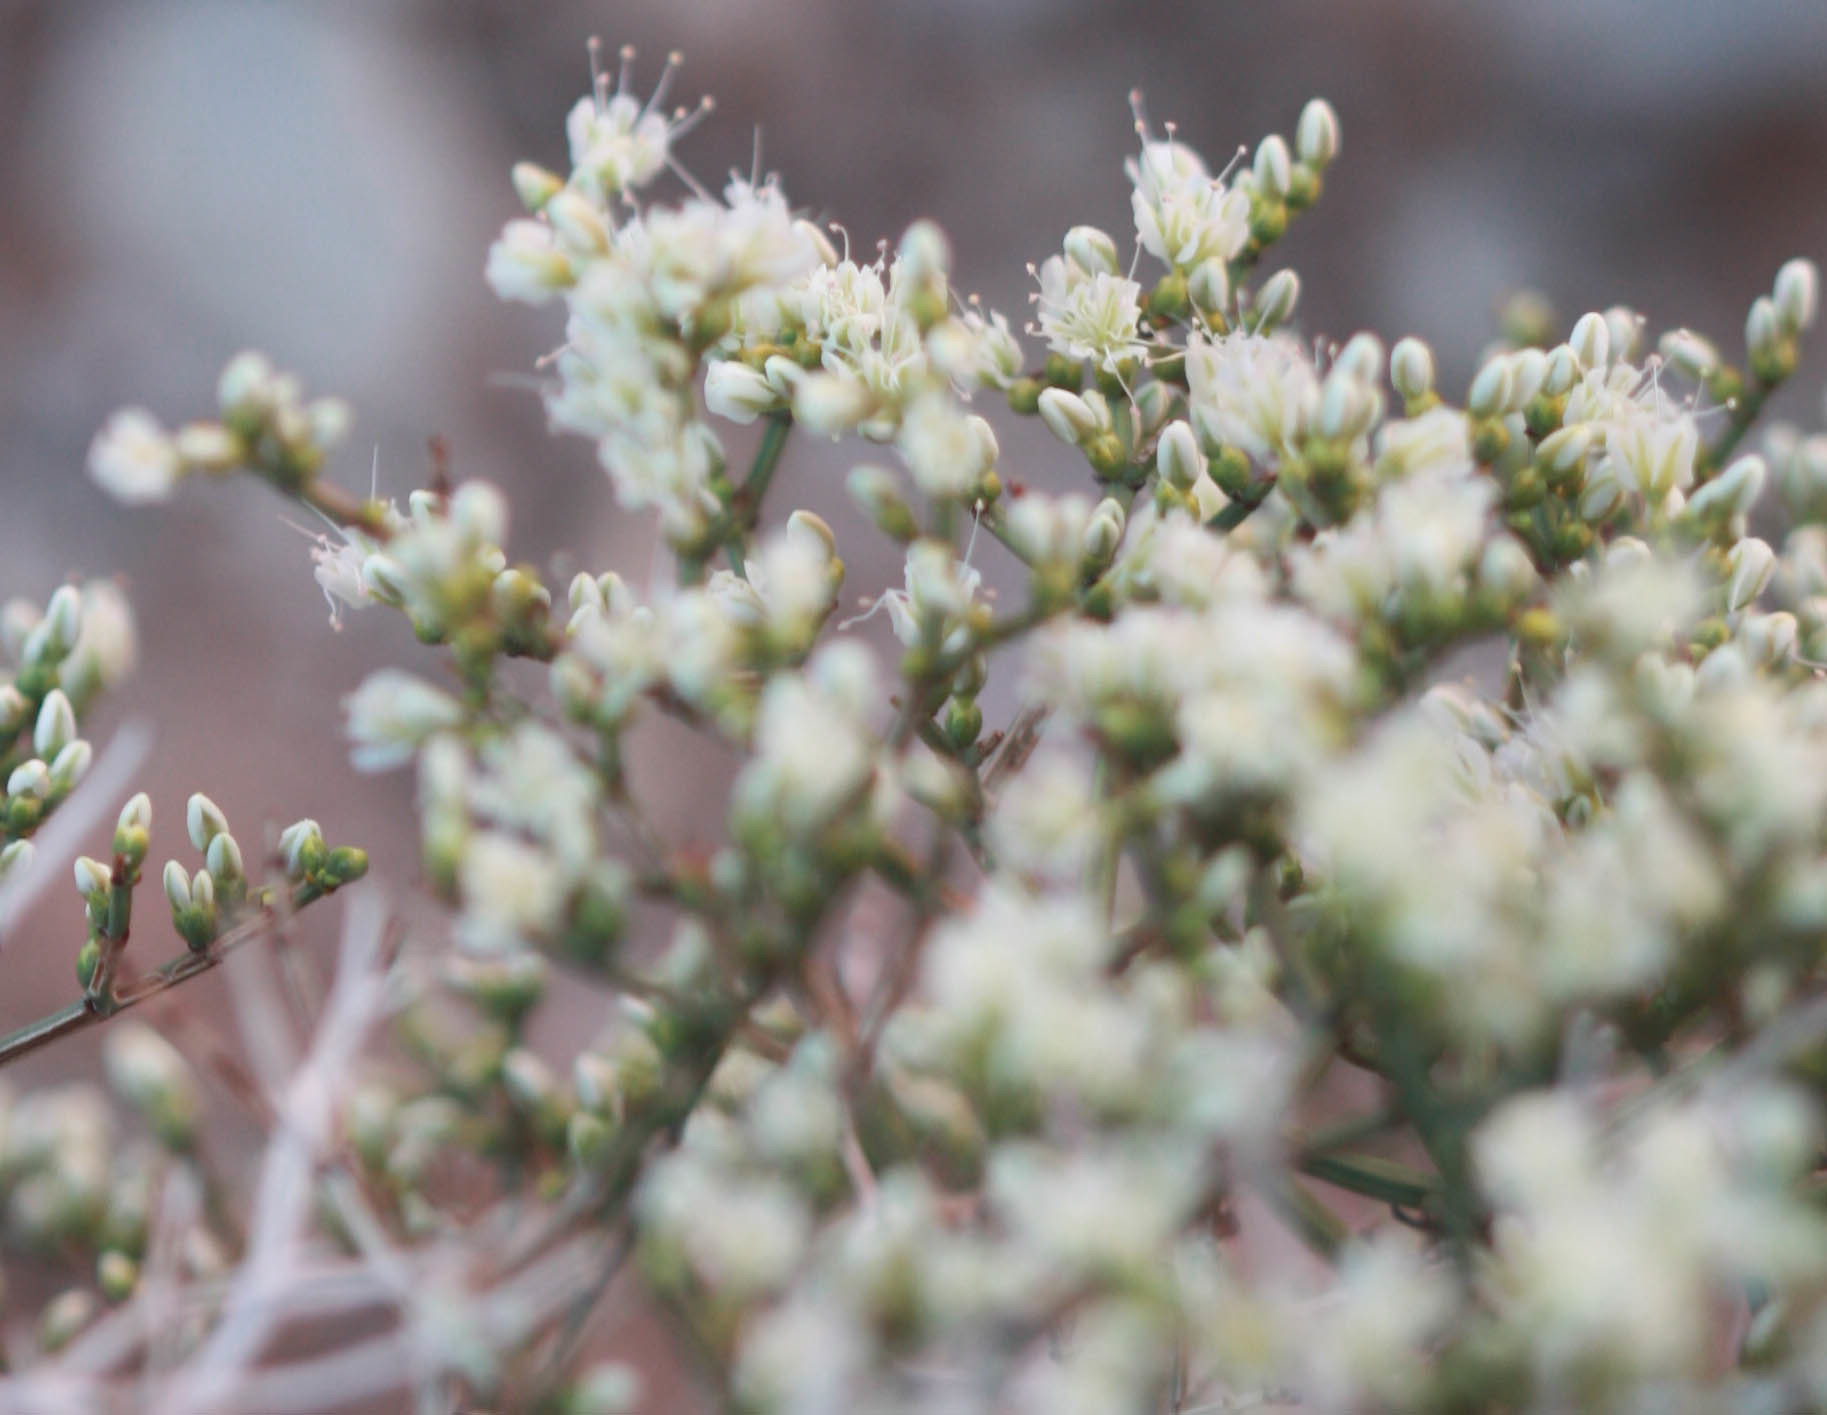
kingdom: Plantae
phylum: Tracheophyta
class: Magnoliopsida
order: Caryophyllales
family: Polygonaceae
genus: Eriogonum
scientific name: Eriogonum heermannii
